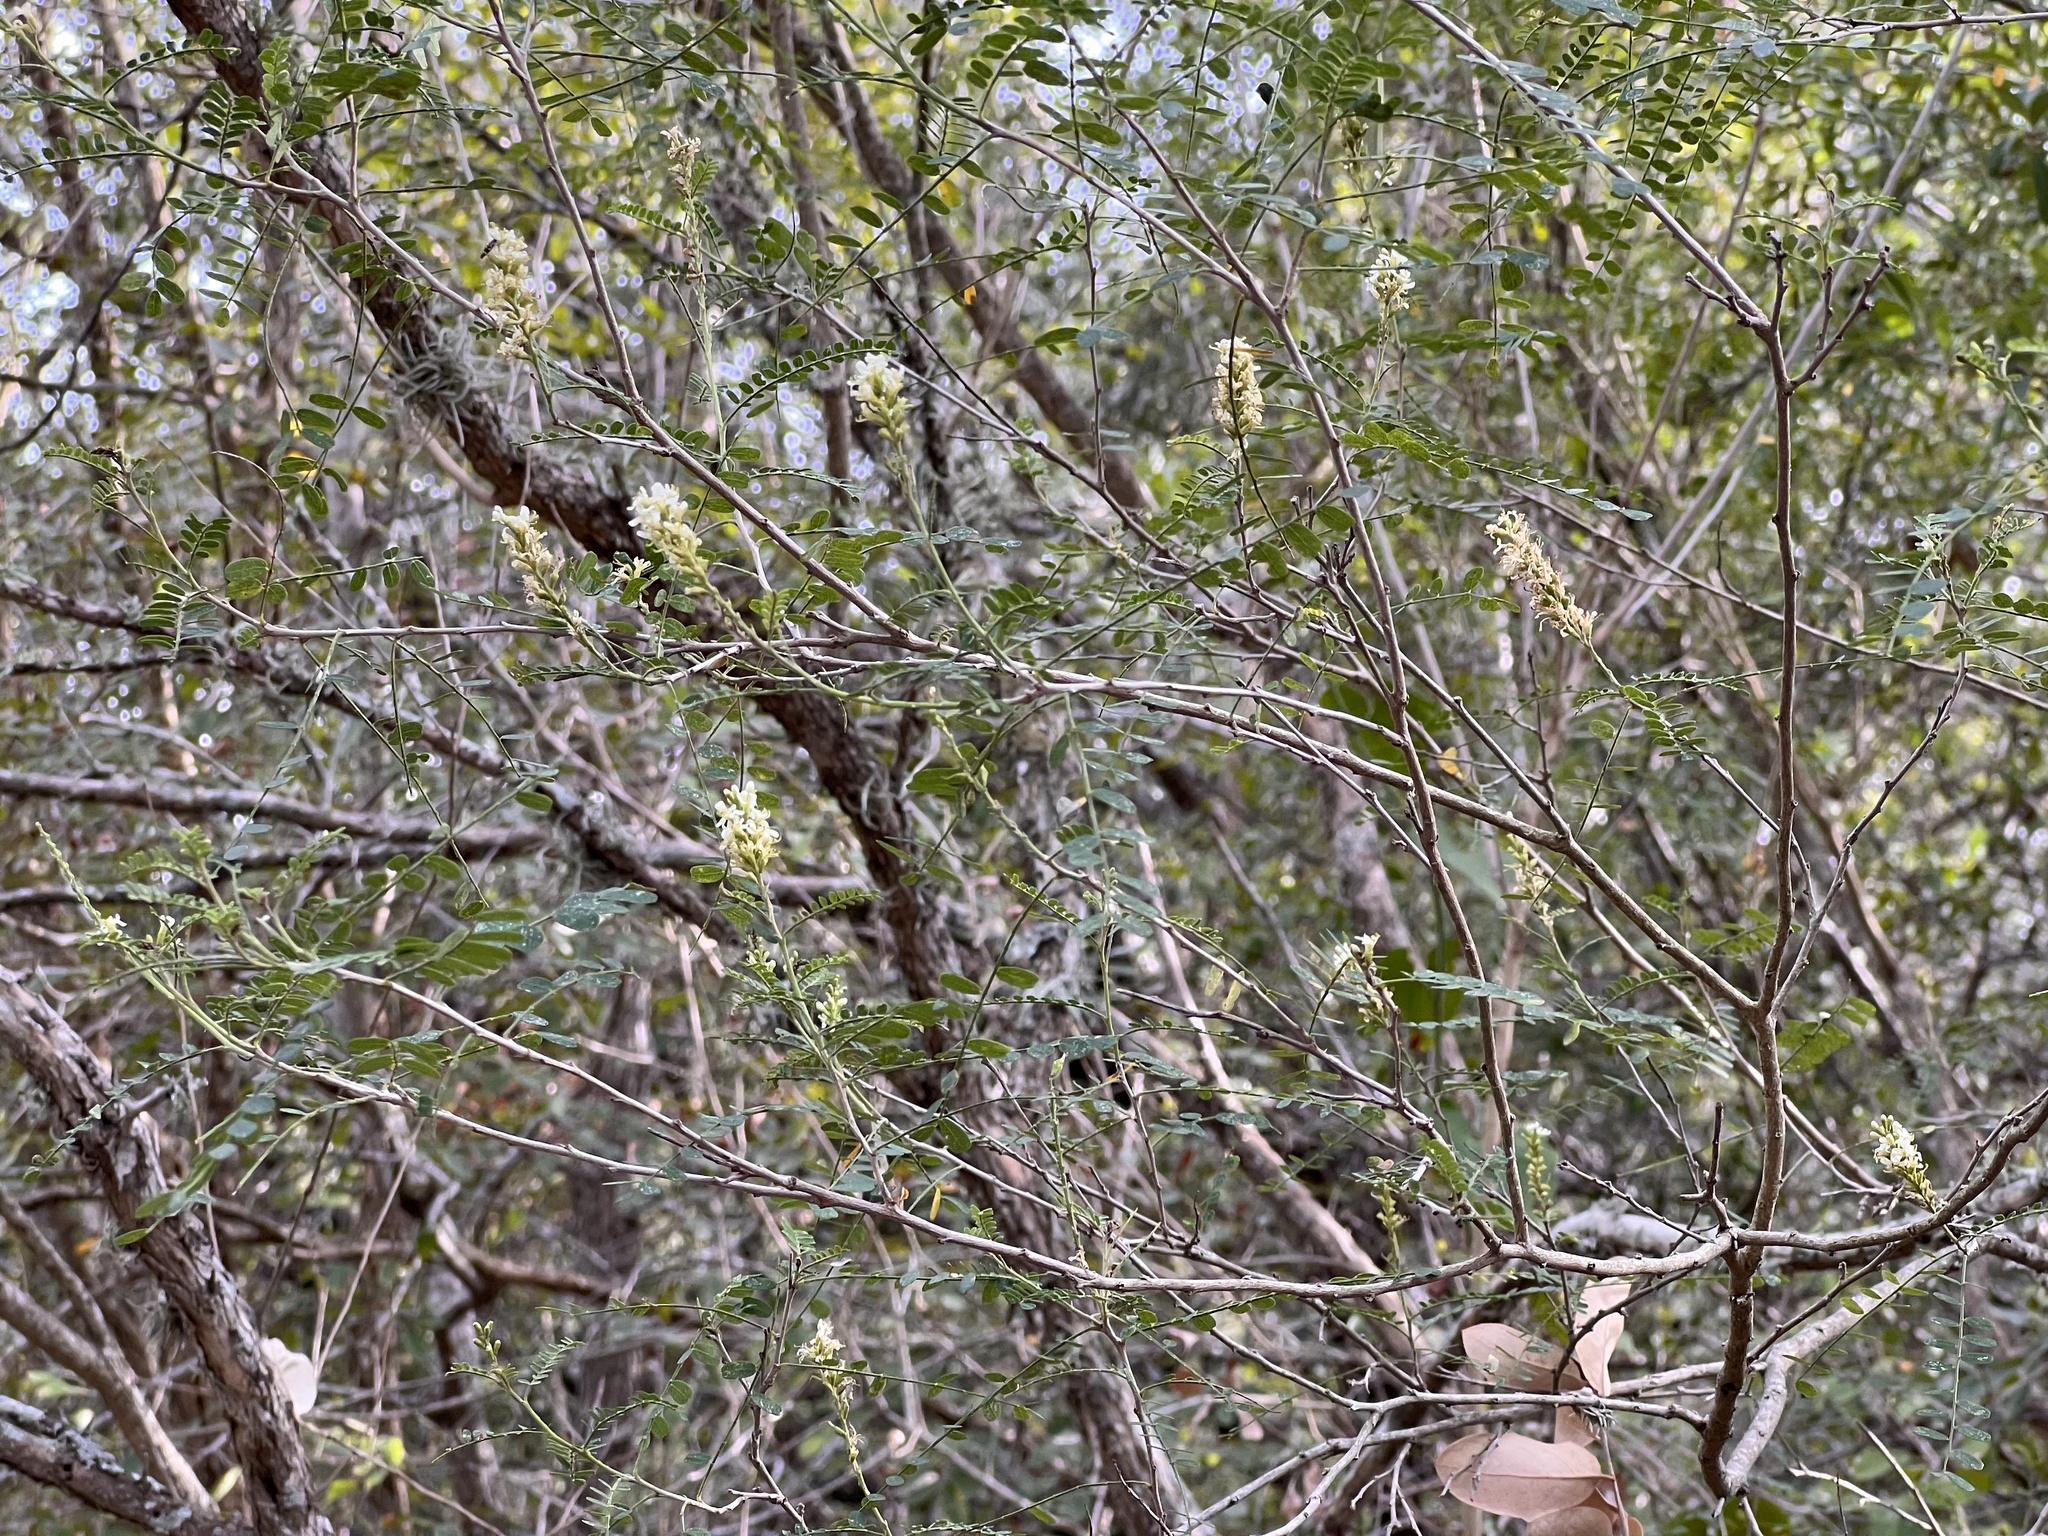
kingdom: Plantae
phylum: Tracheophyta
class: Magnoliopsida
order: Fabales
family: Fabaceae
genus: Eysenhardtia
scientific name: Eysenhardtia texana
